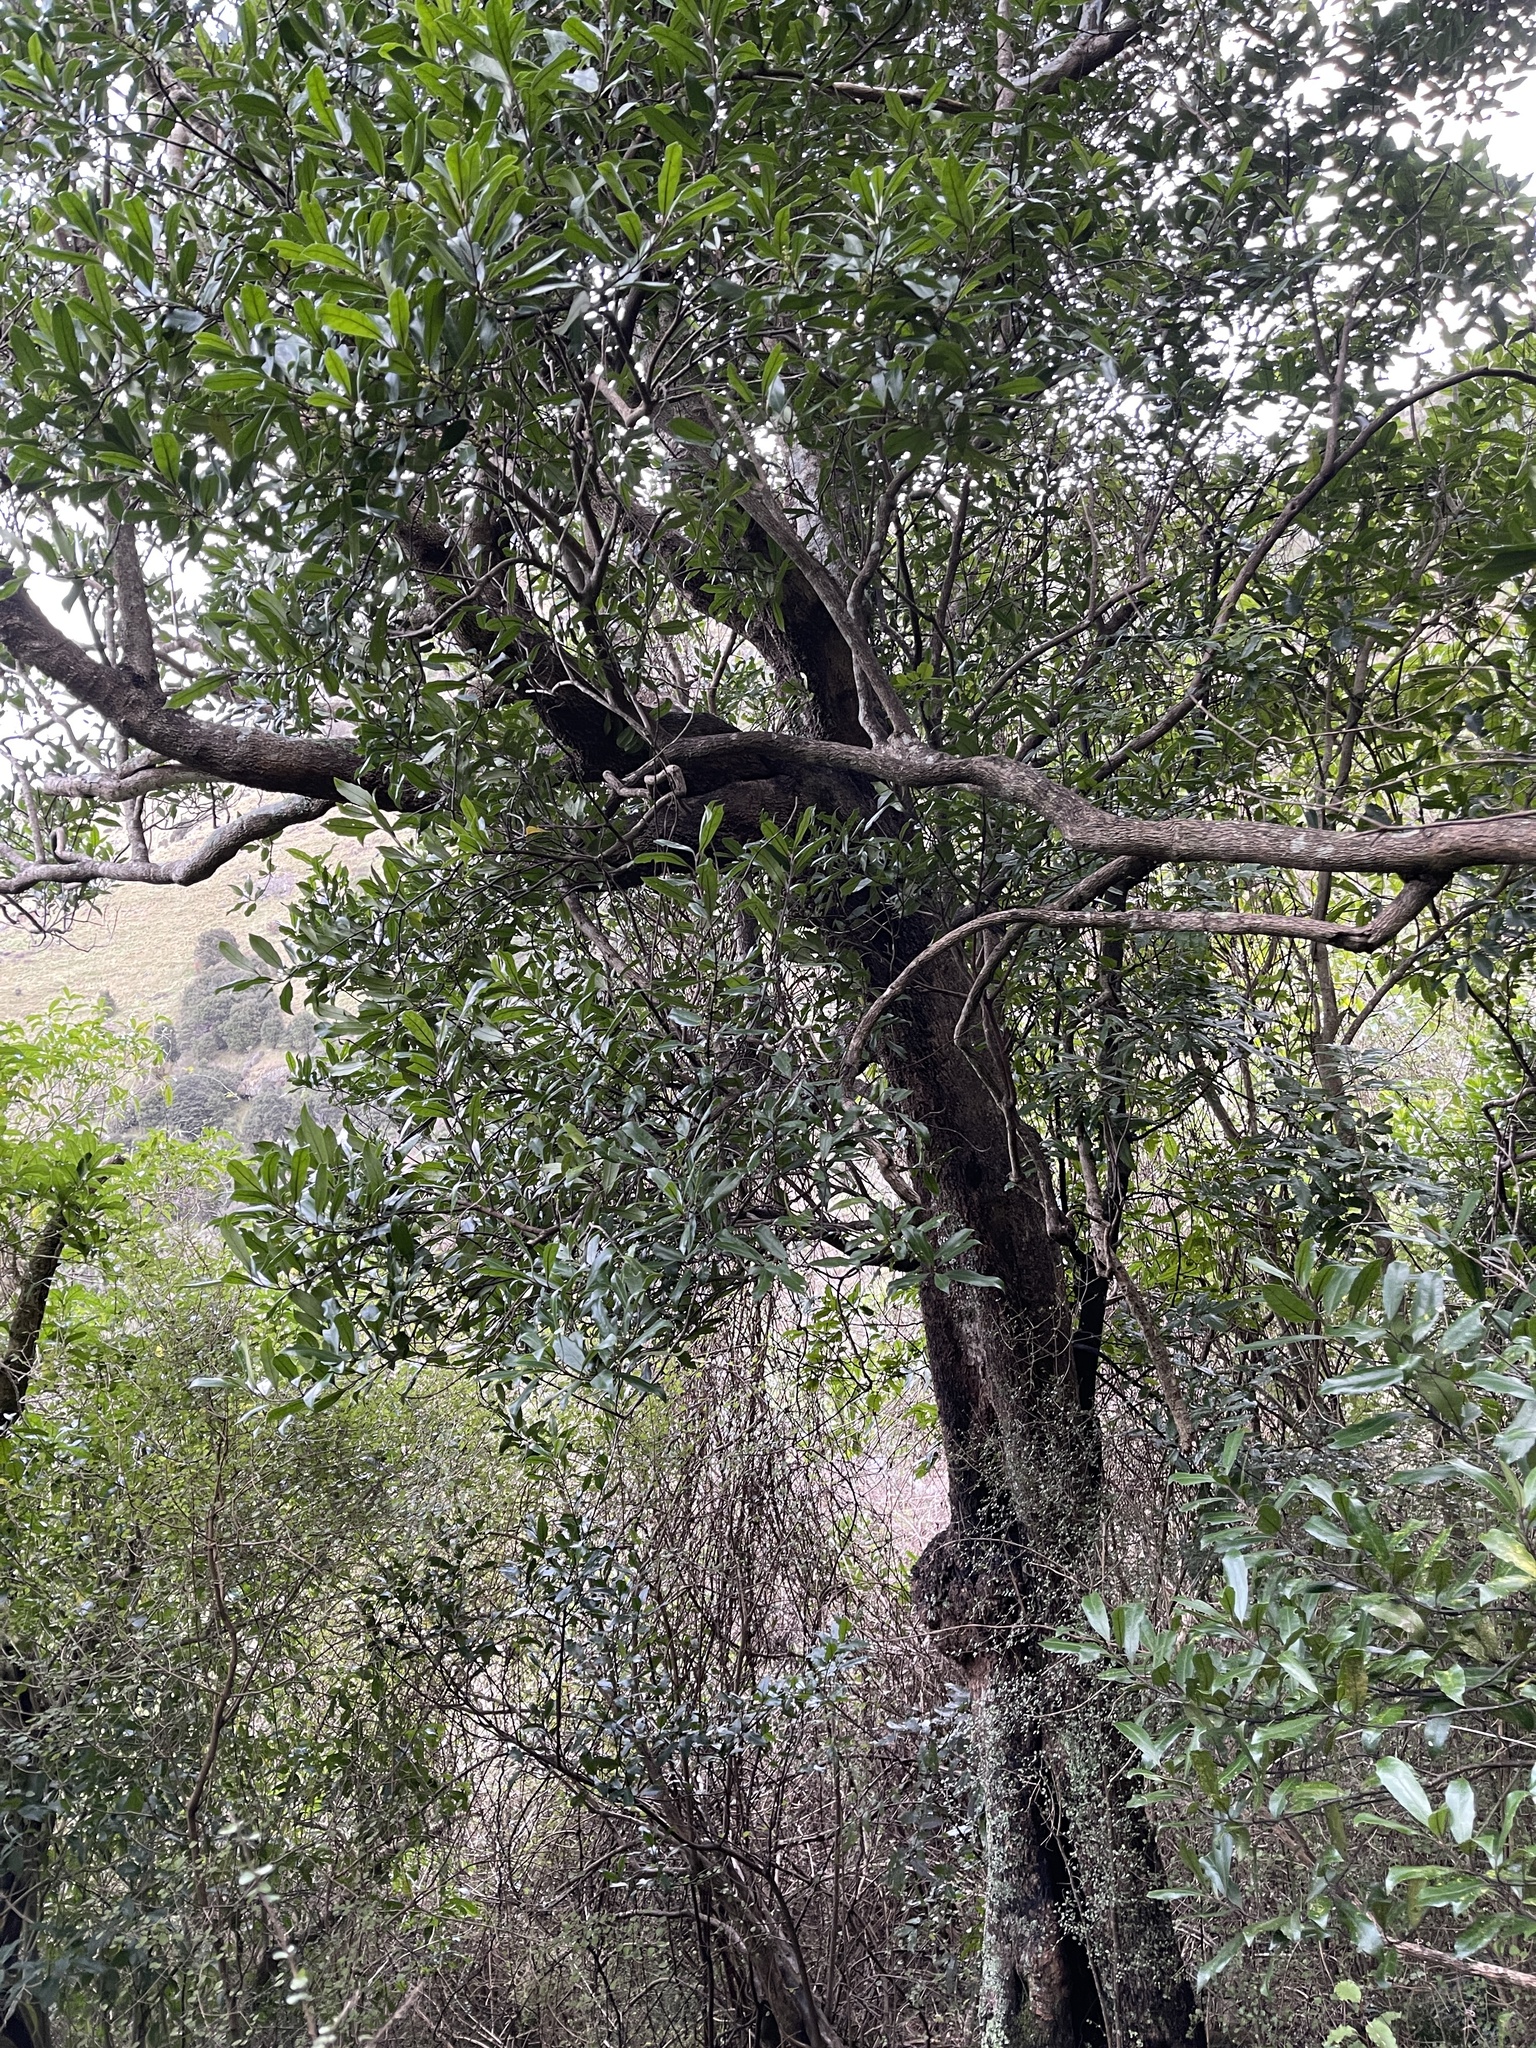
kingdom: Plantae
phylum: Tracheophyta
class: Magnoliopsida
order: Laurales
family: Monimiaceae
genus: Hedycarya
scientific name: Hedycarya arborea
